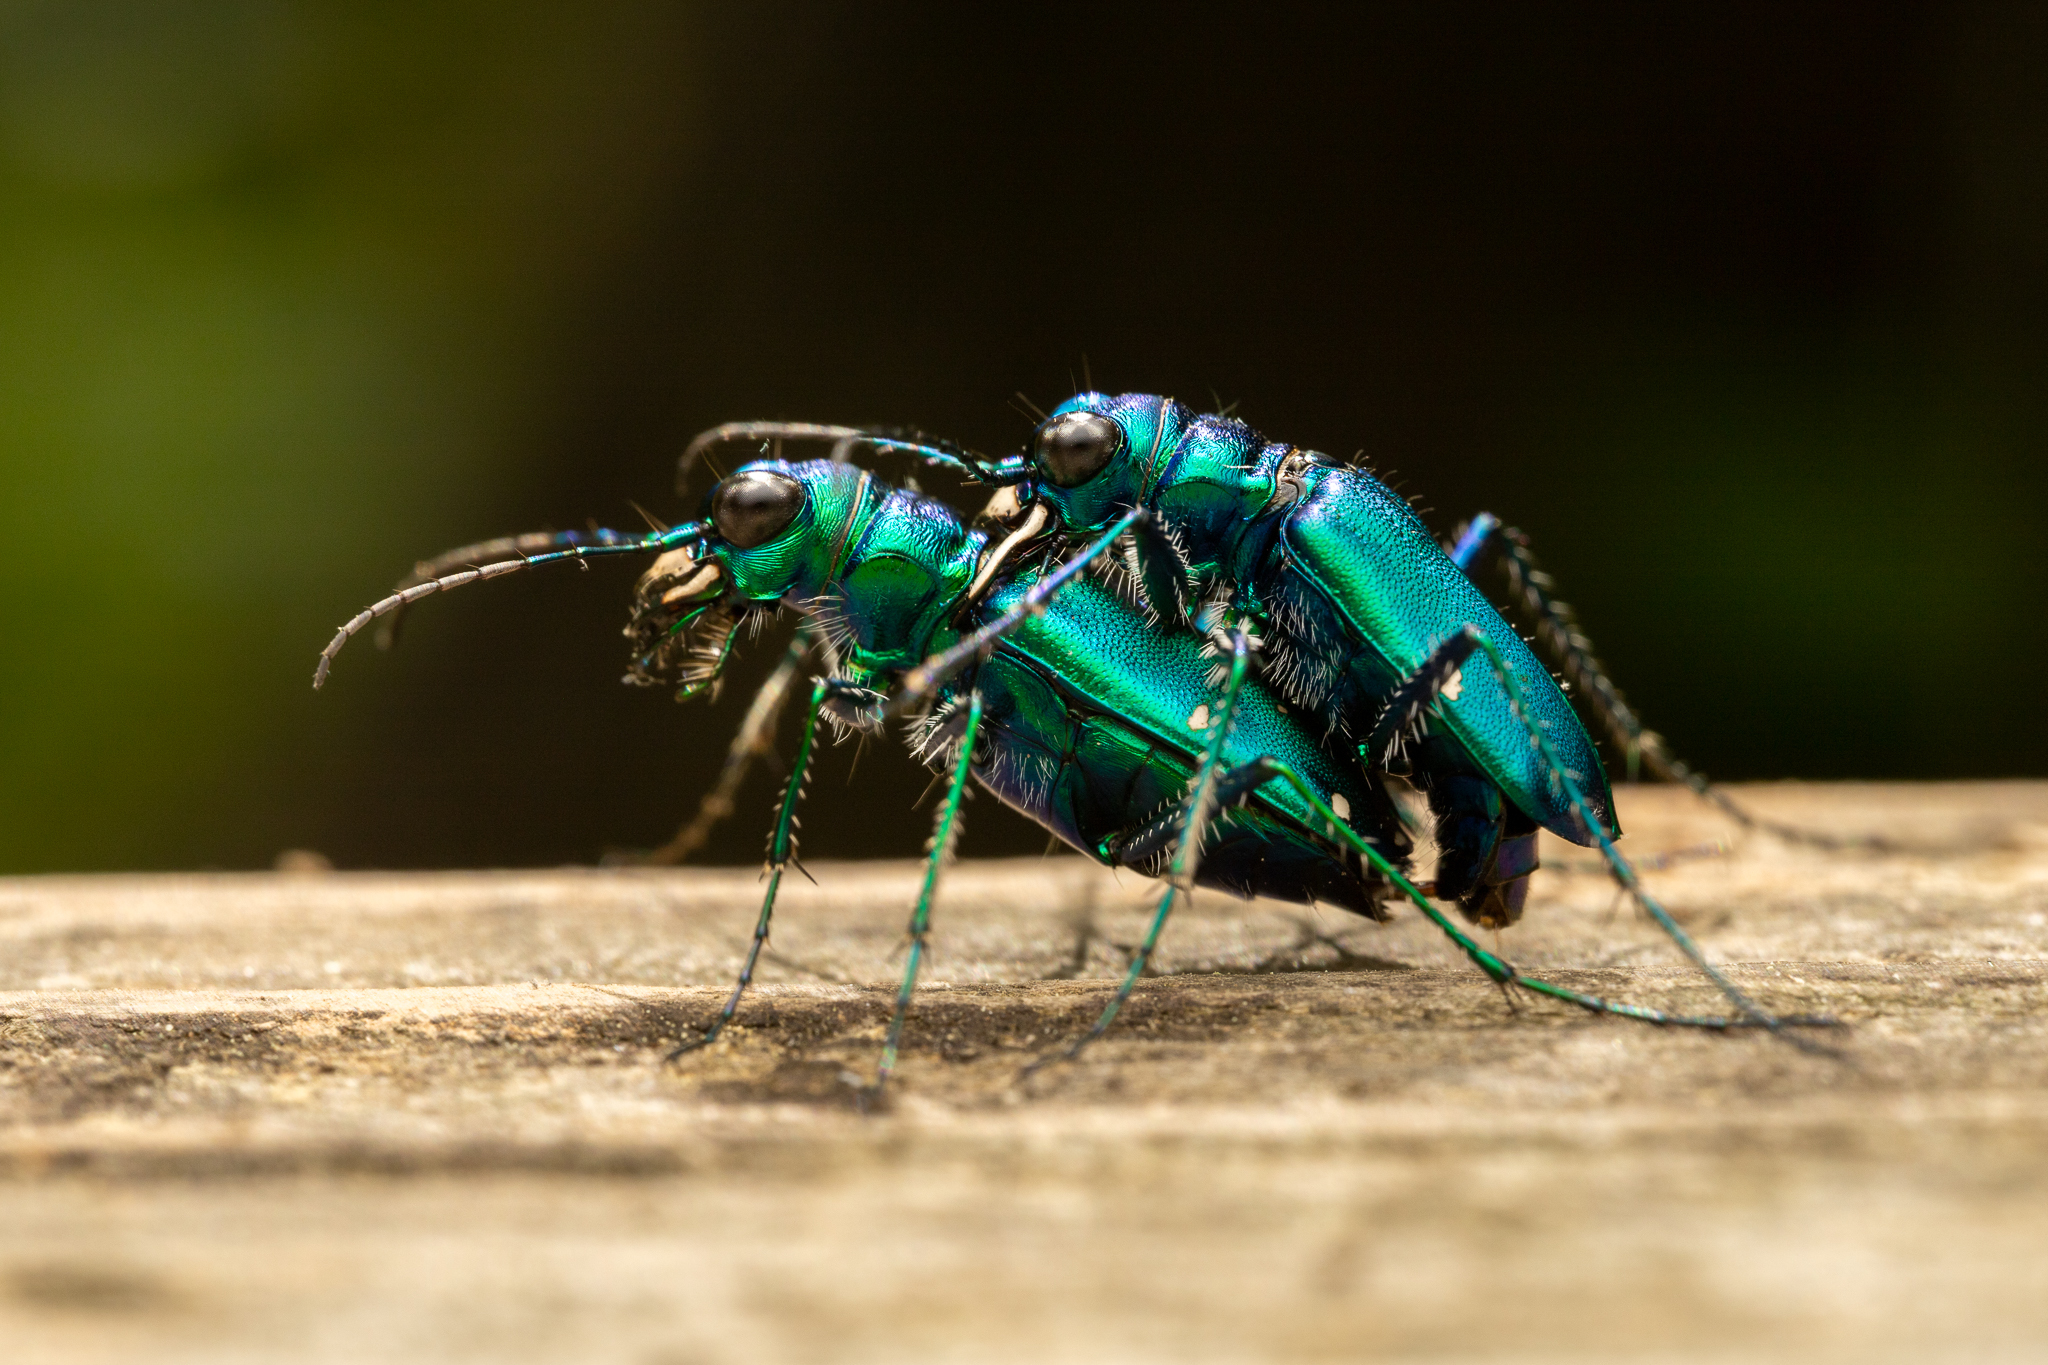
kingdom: Animalia
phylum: Arthropoda
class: Insecta
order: Coleoptera
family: Carabidae
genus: Cicindela
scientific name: Cicindela sexguttata
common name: Six-spotted tiger beetle
